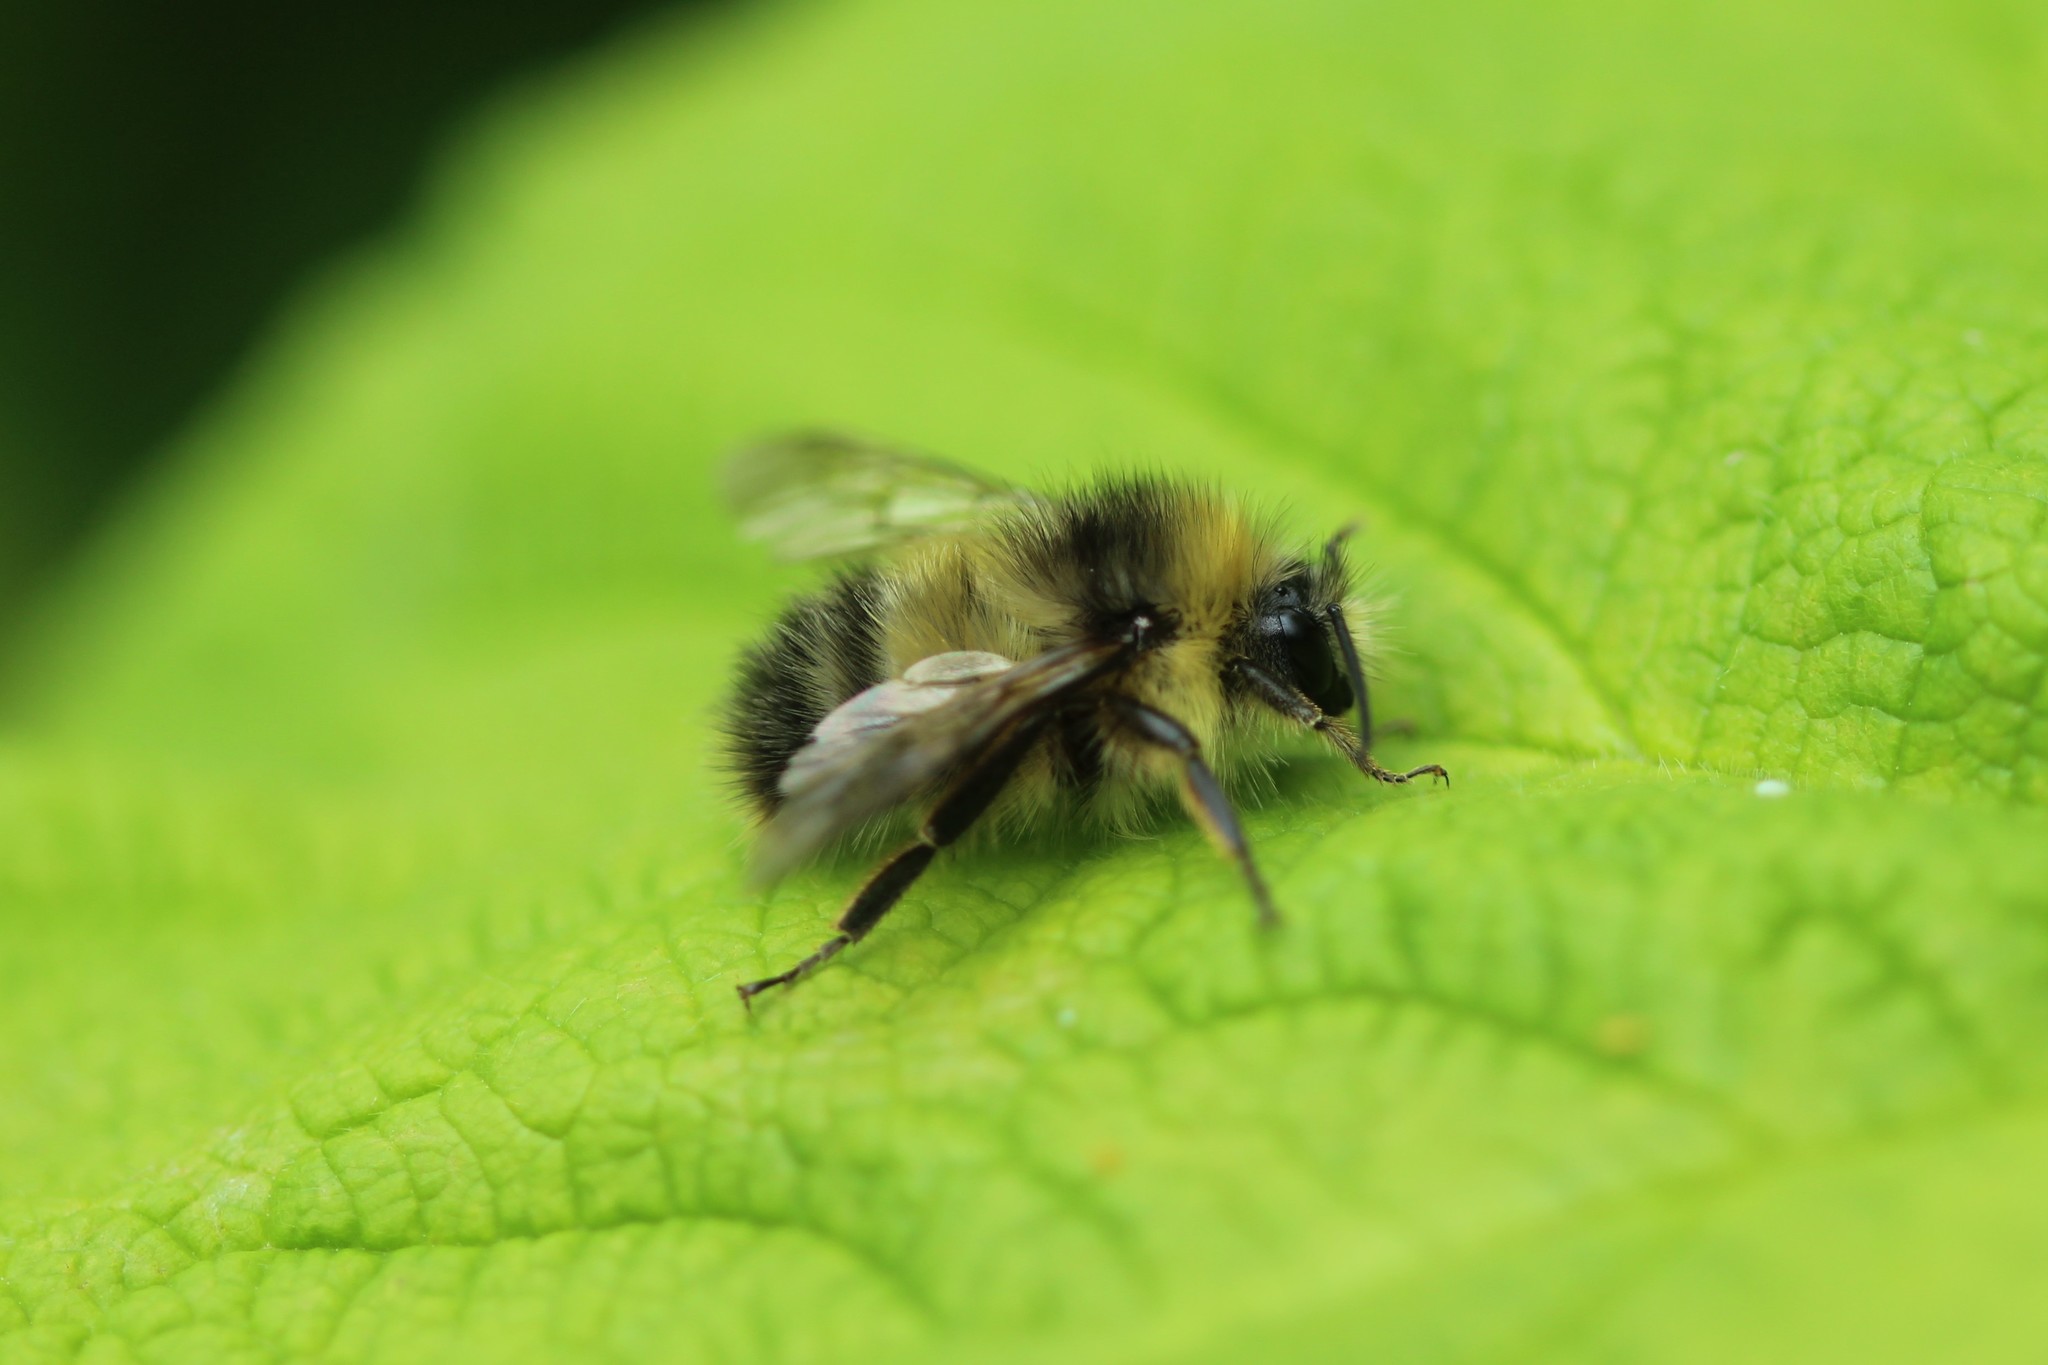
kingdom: Animalia
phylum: Arthropoda
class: Insecta
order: Hymenoptera
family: Apidae
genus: Bombus
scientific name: Bombus sitkensis
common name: Sitka bumble bee
